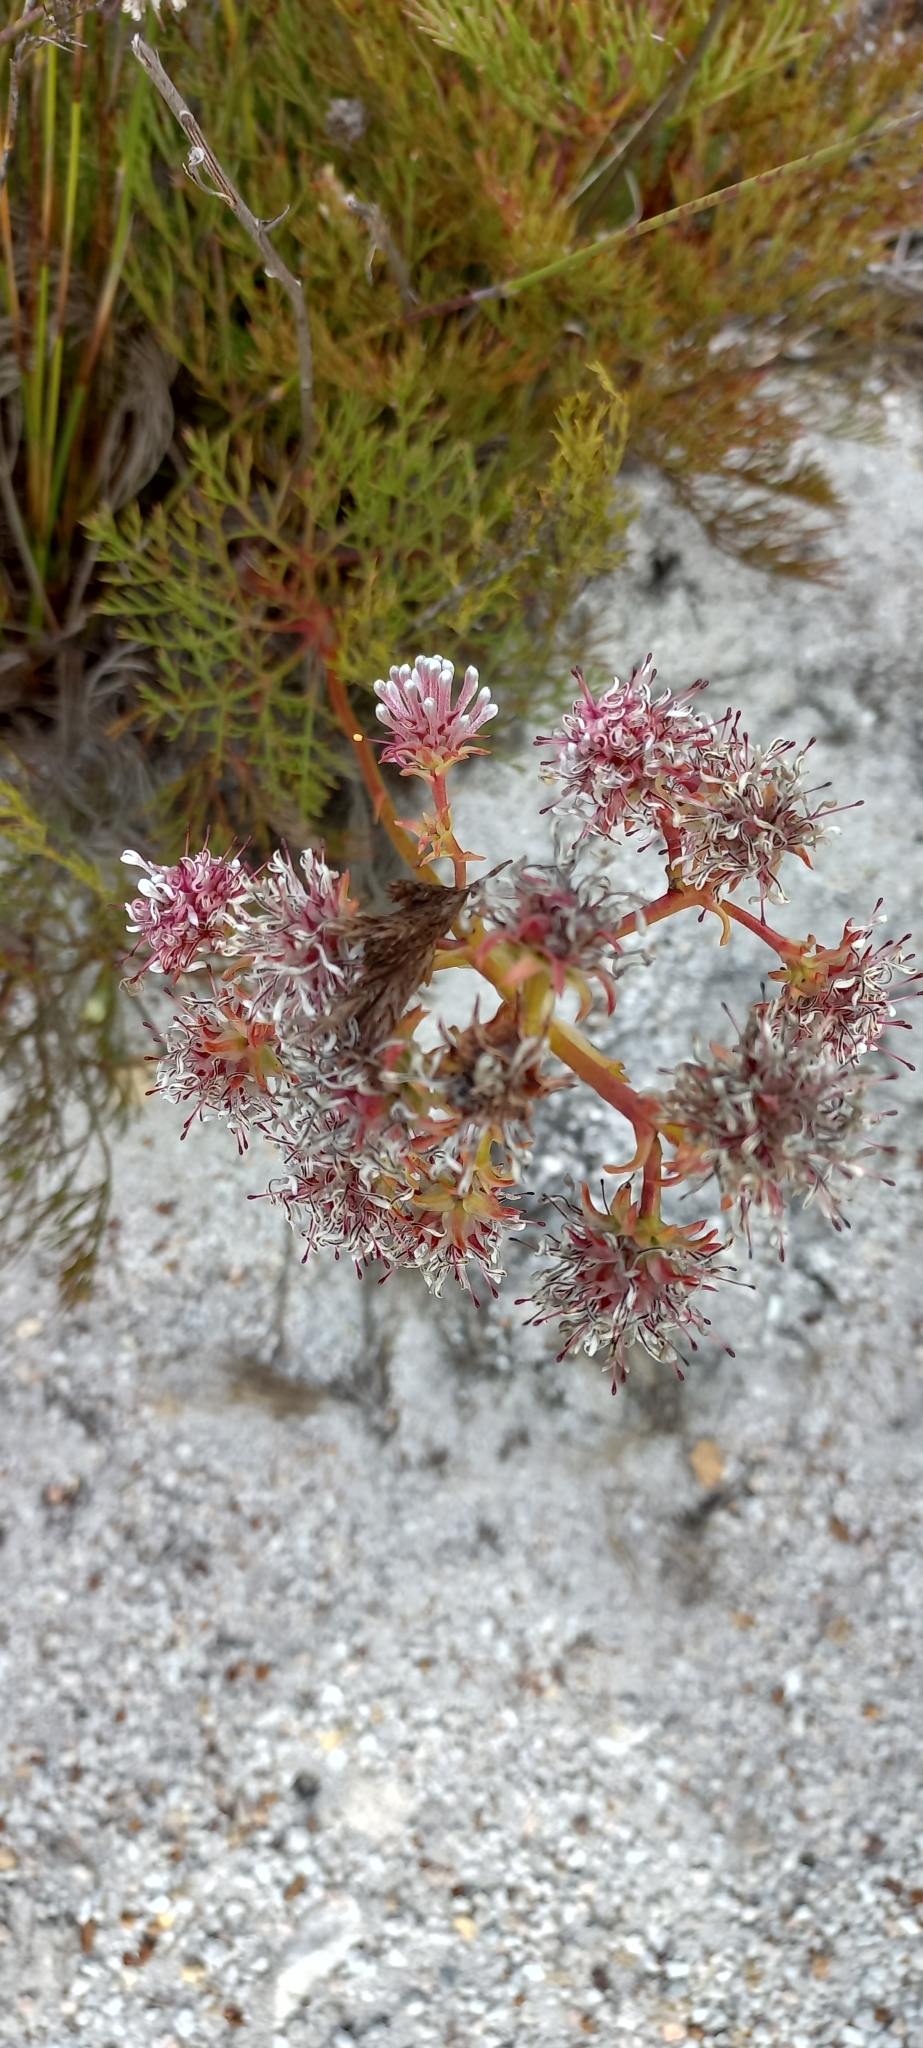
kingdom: Plantae
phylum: Tracheophyta
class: Magnoliopsida
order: Proteales
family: Proteaceae
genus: Serruria
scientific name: Serruria elongata
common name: Long-stalk spiderhead
